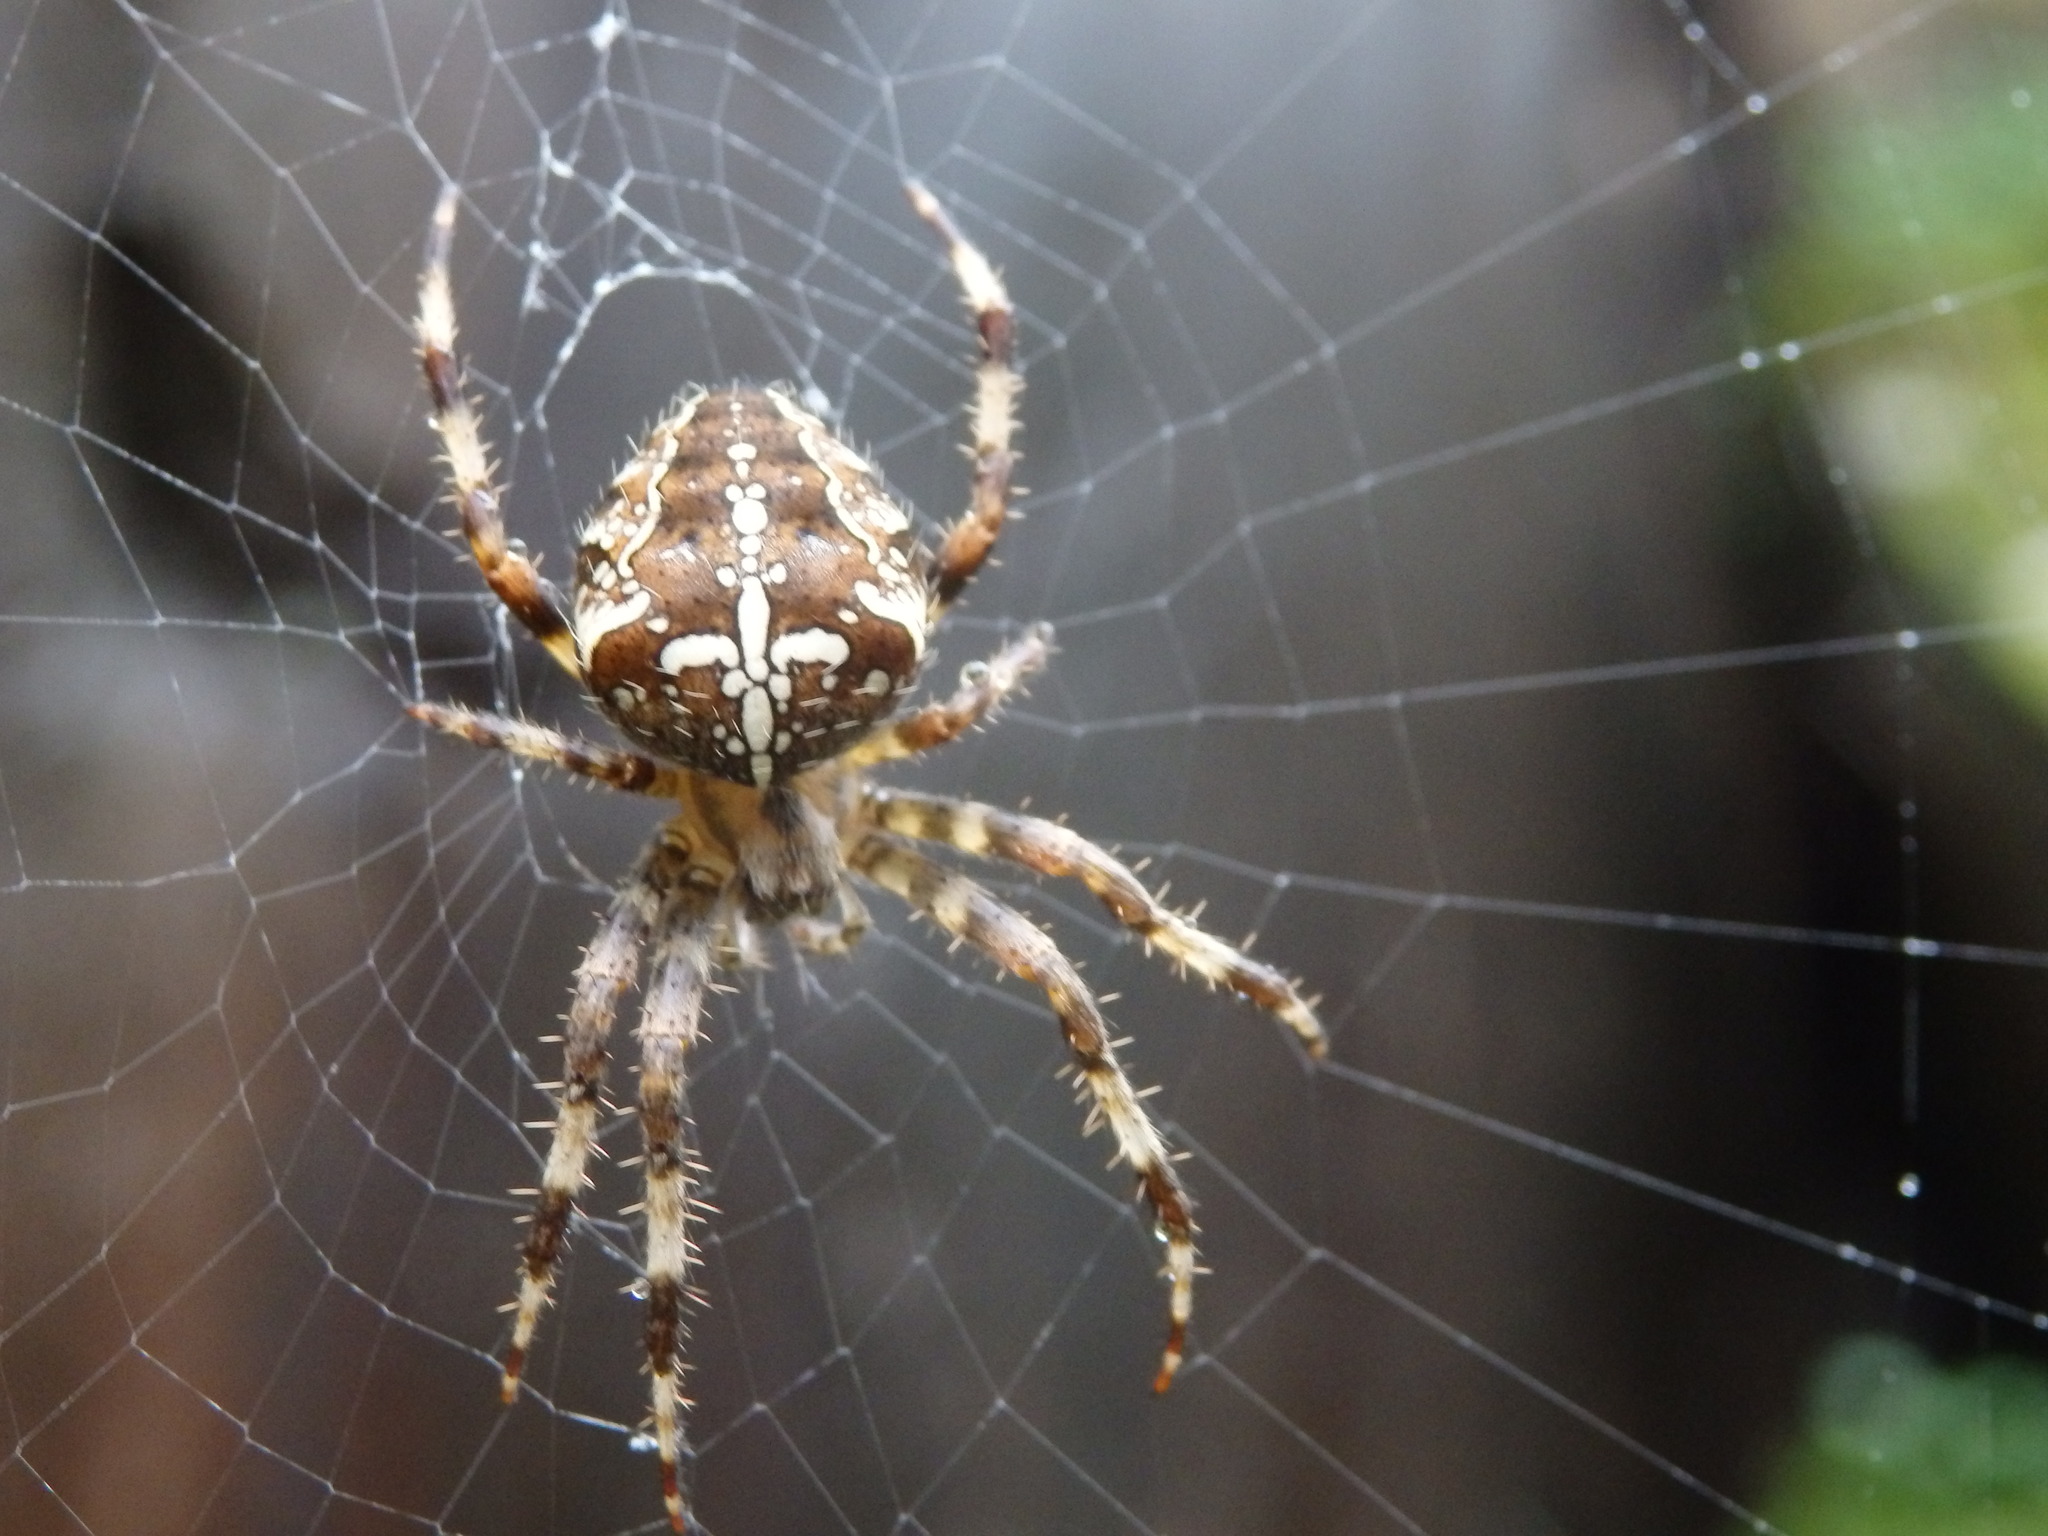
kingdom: Animalia
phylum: Arthropoda
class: Arachnida
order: Araneae
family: Araneidae
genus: Araneus
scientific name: Araneus diadematus
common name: Cross orbweaver
